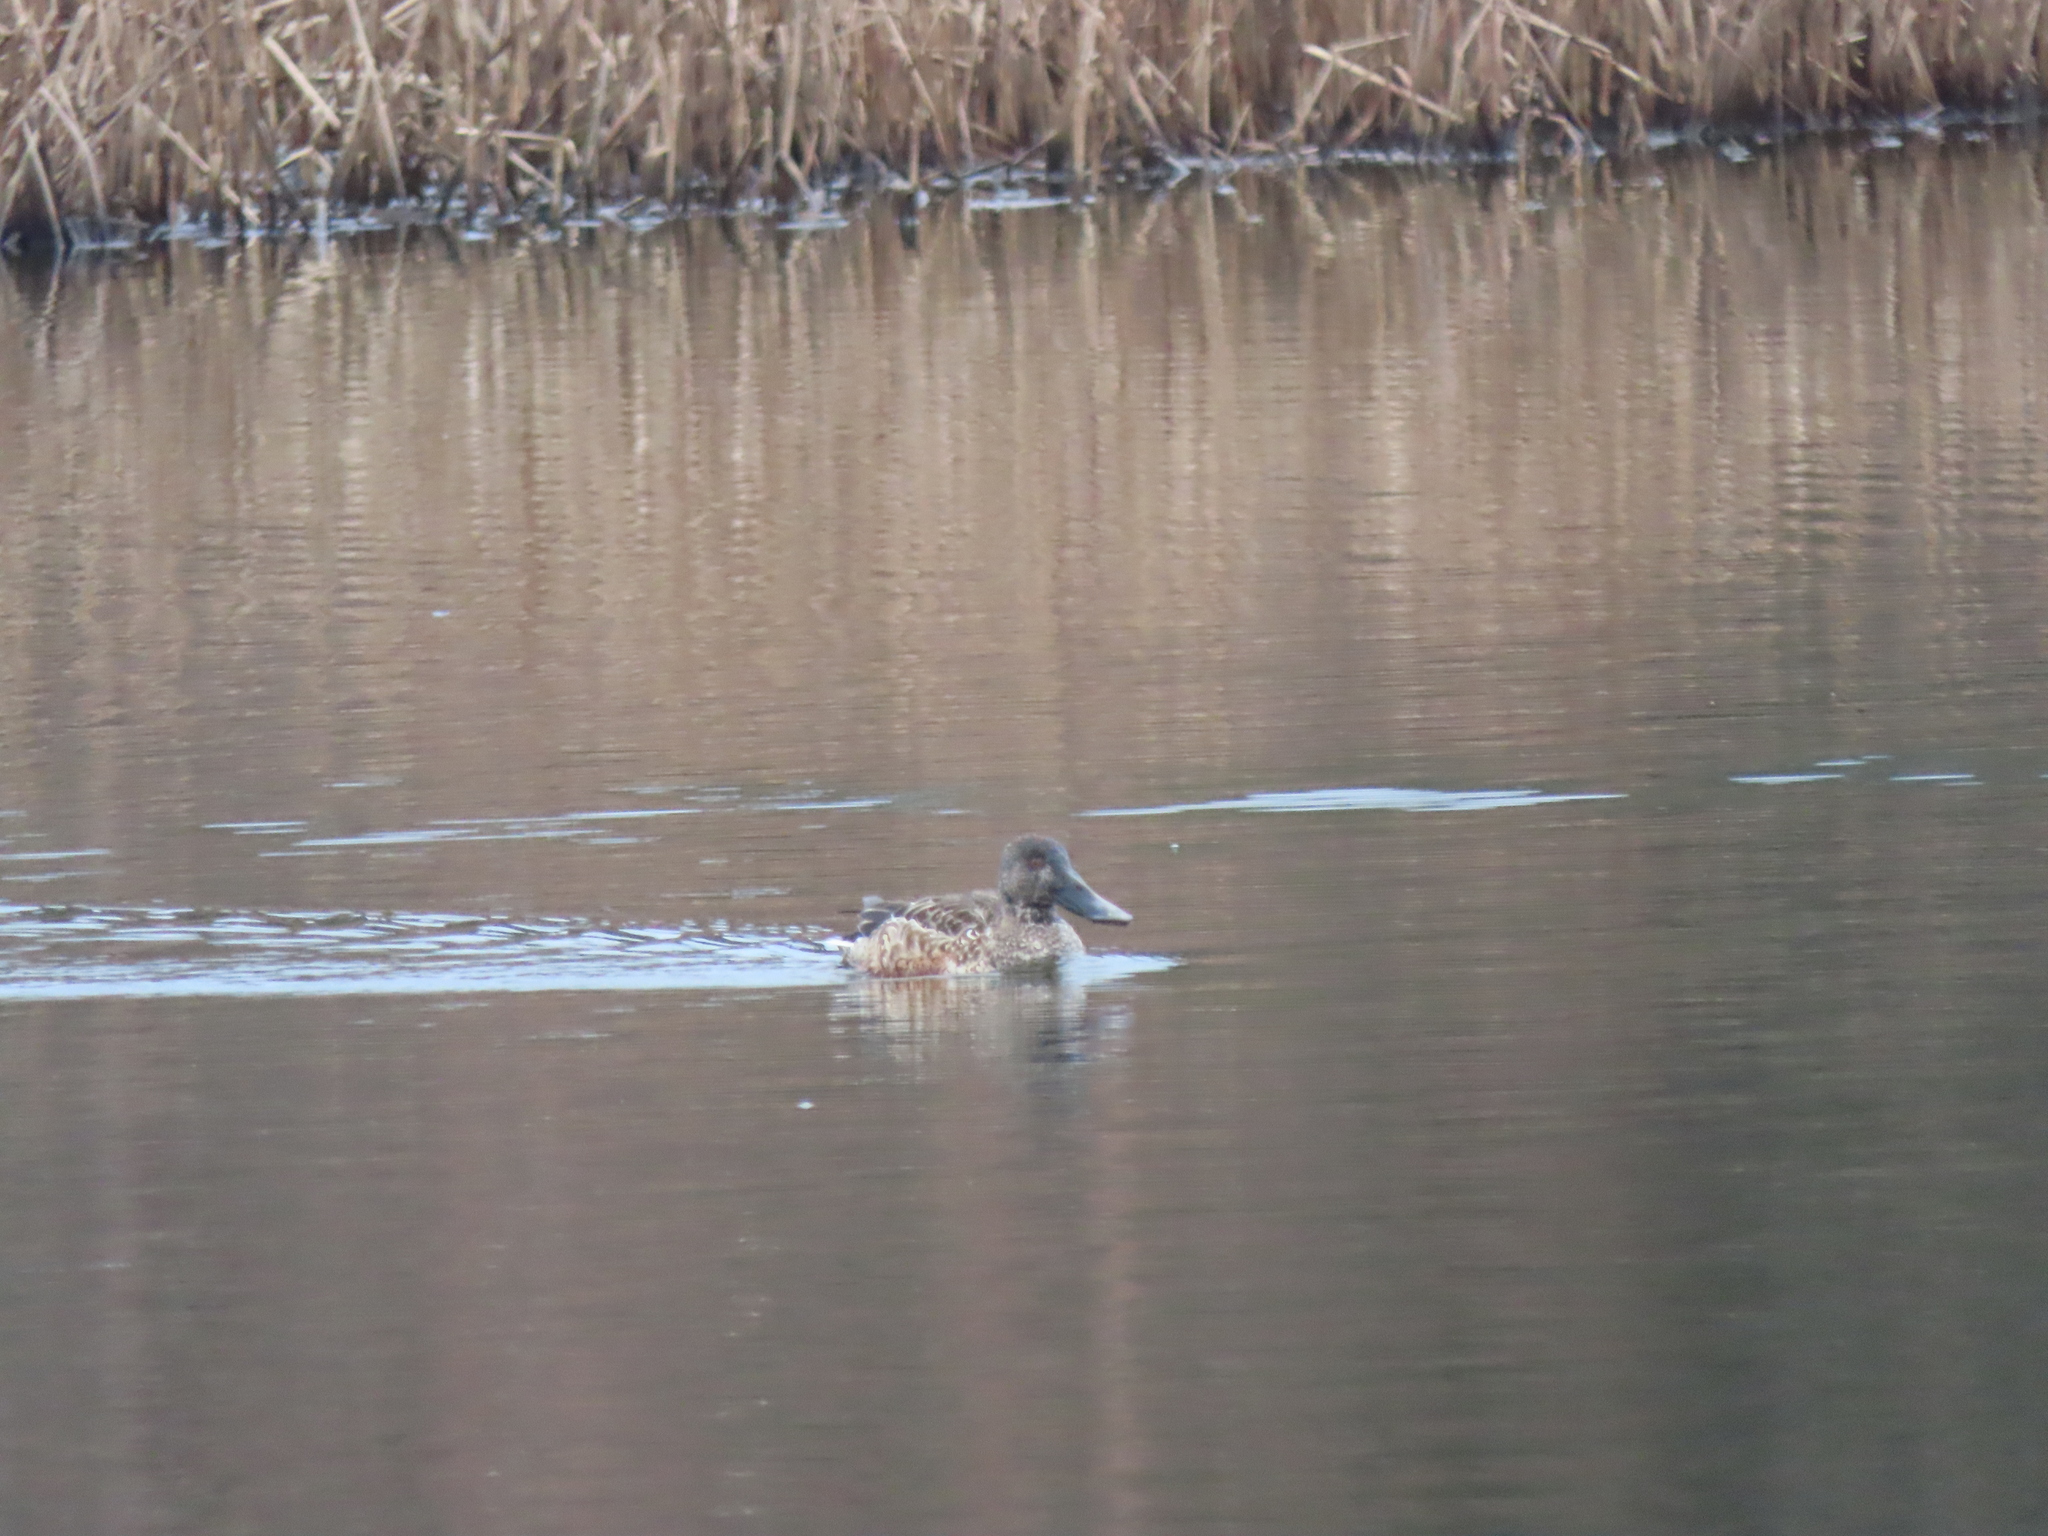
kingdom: Animalia
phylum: Chordata
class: Aves
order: Anseriformes
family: Anatidae
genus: Spatula
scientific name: Spatula clypeata
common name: Northern shoveler
